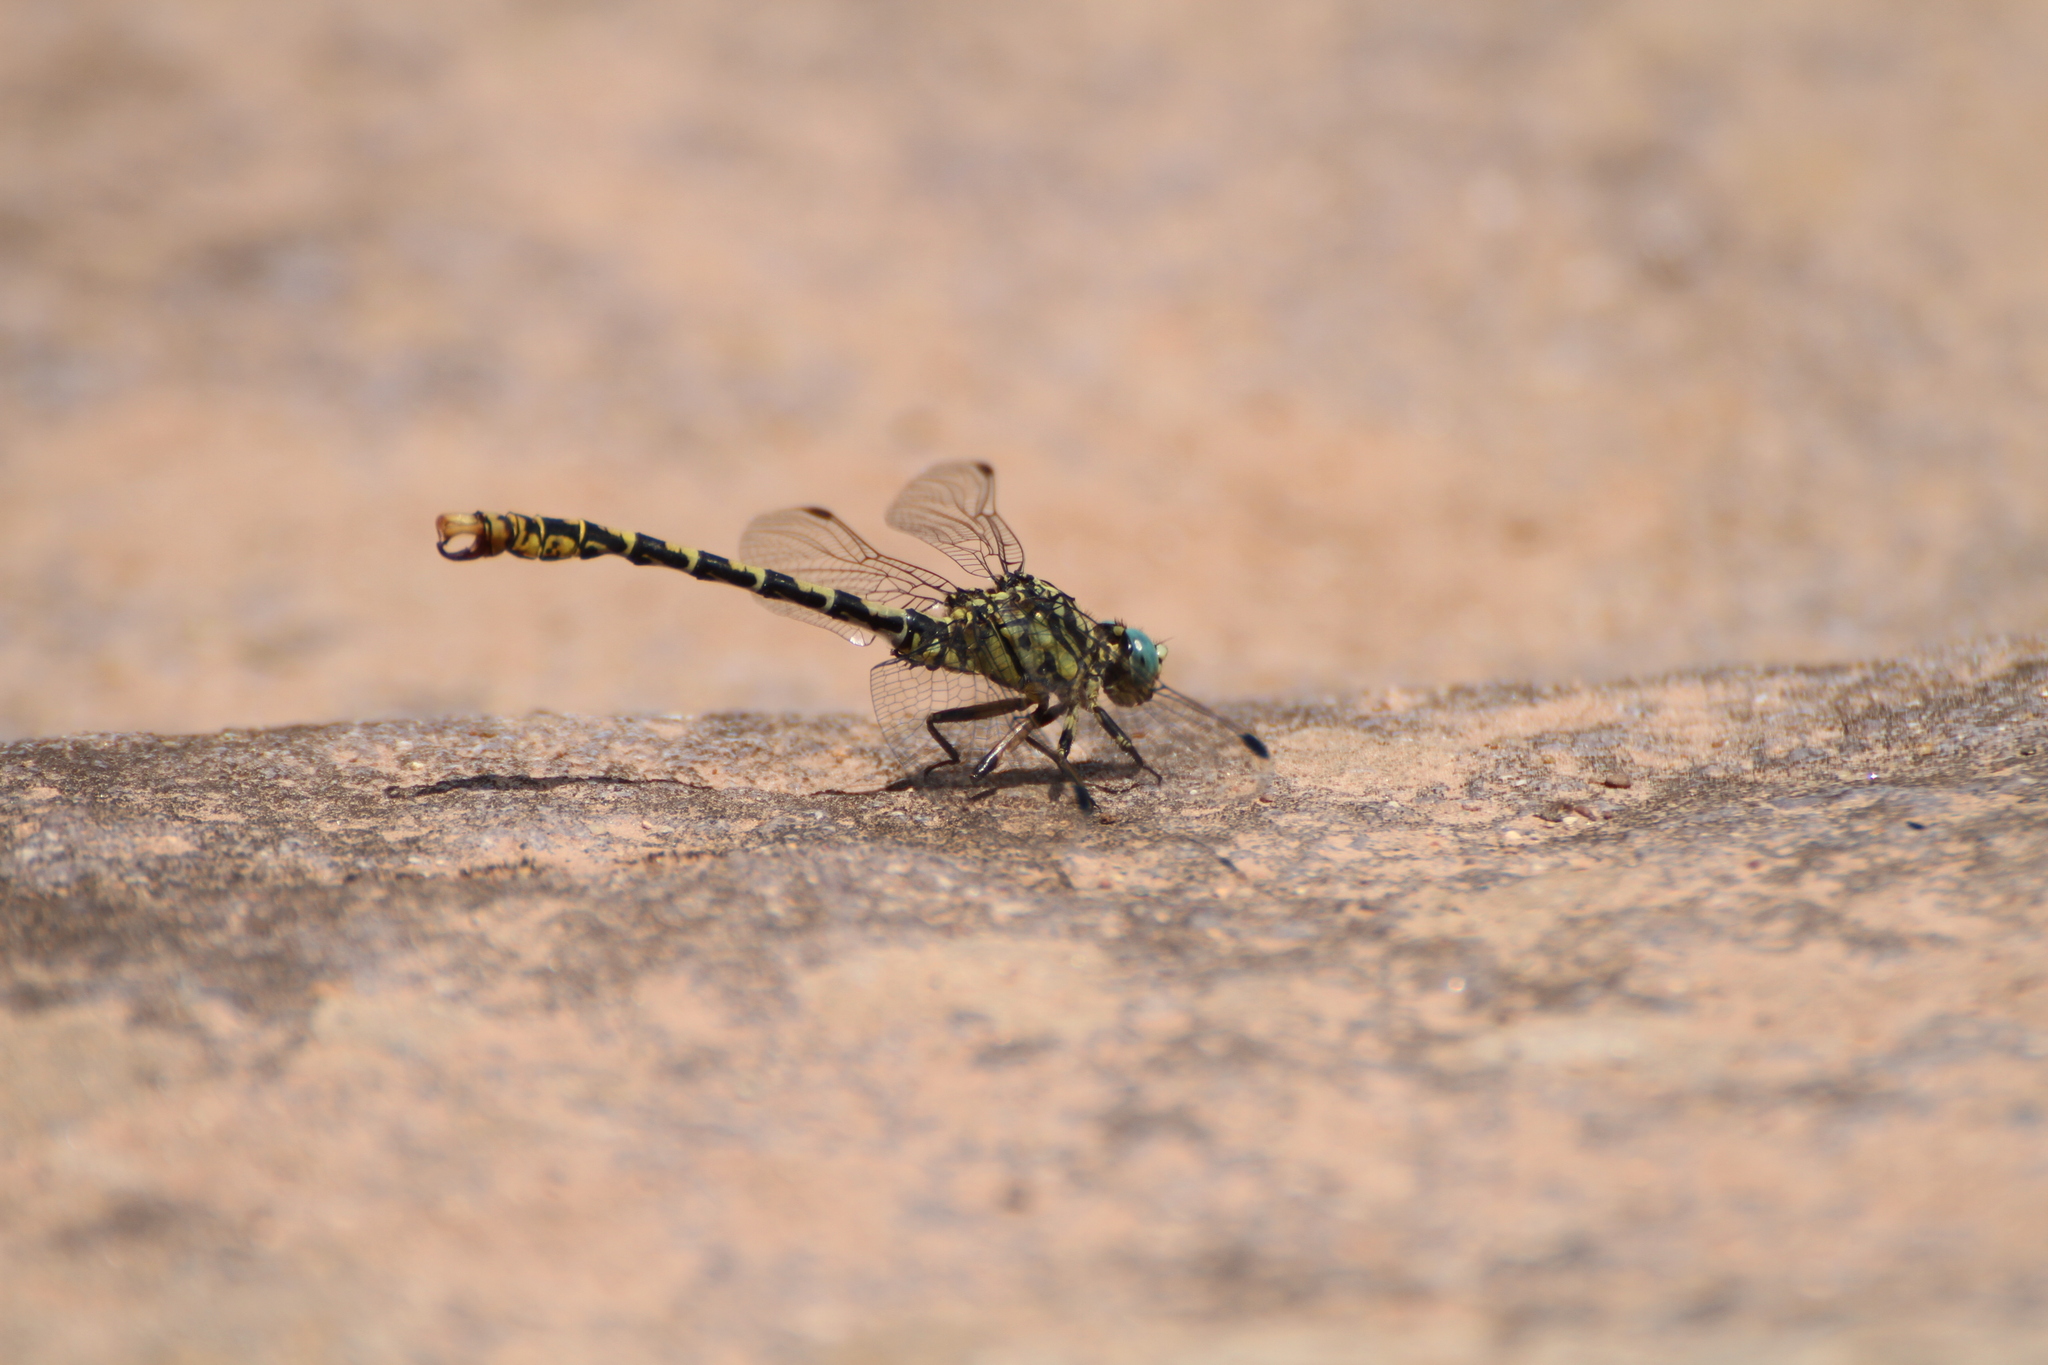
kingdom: Animalia
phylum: Arthropoda
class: Insecta
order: Odonata
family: Gomphidae
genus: Onychogomphus
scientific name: Onychogomphus forcipatus
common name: Small pincertail
